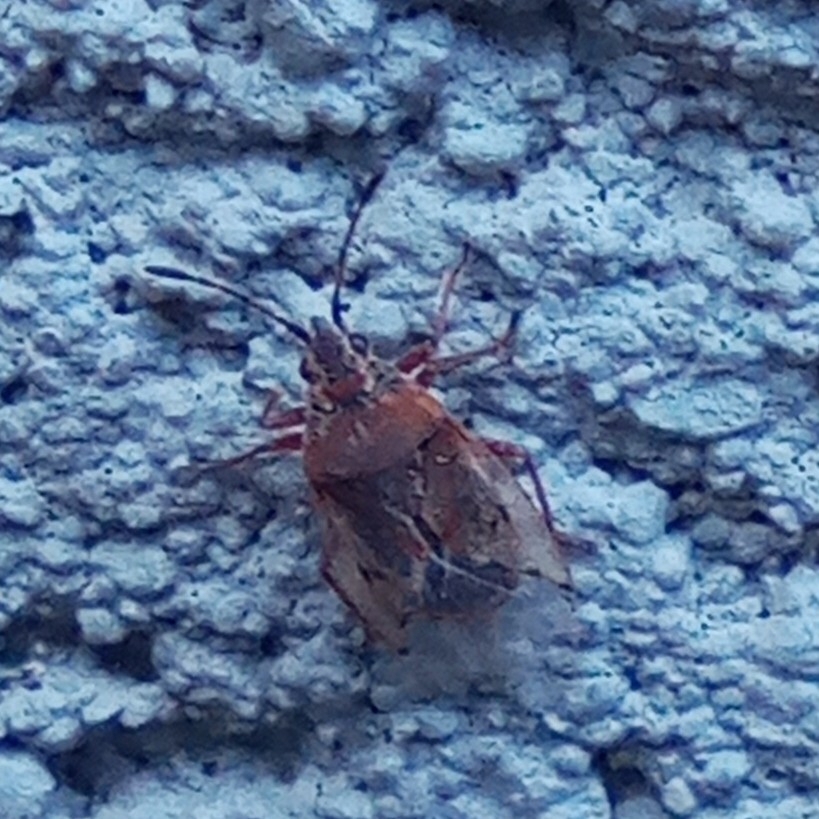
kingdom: Animalia
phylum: Arthropoda
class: Insecta
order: Hemiptera
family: Lygaeidae
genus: Kleidocerys
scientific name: Kleidocerys resedae
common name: Birch catkin bug
